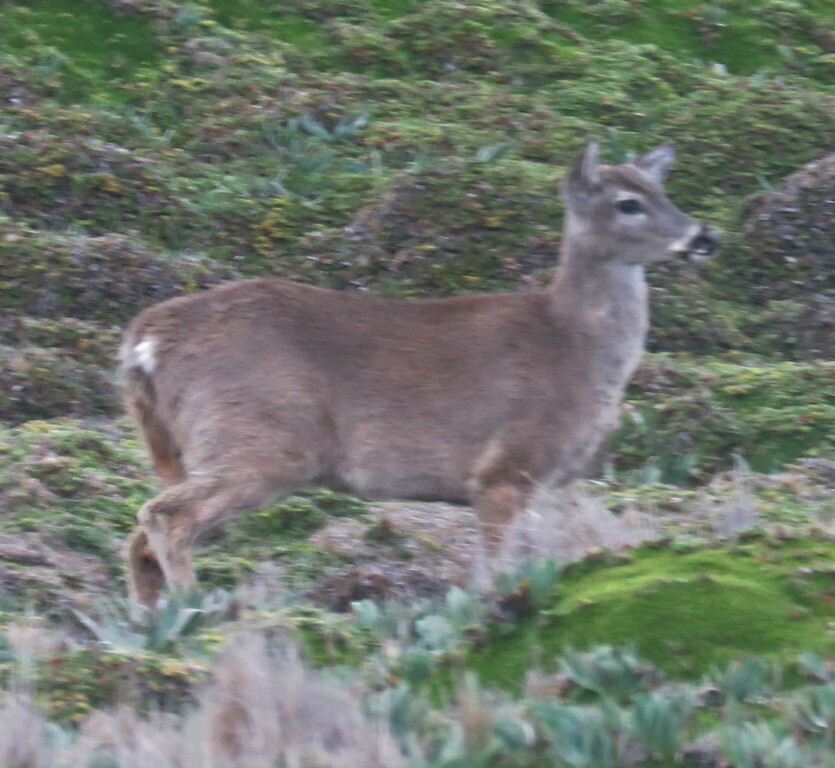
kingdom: Animalia
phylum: Chordata
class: Mammalia
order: Artiodactyla
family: Cervidae
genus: Odocoileus
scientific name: Odocoileus virginianus
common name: White-tailed deer
